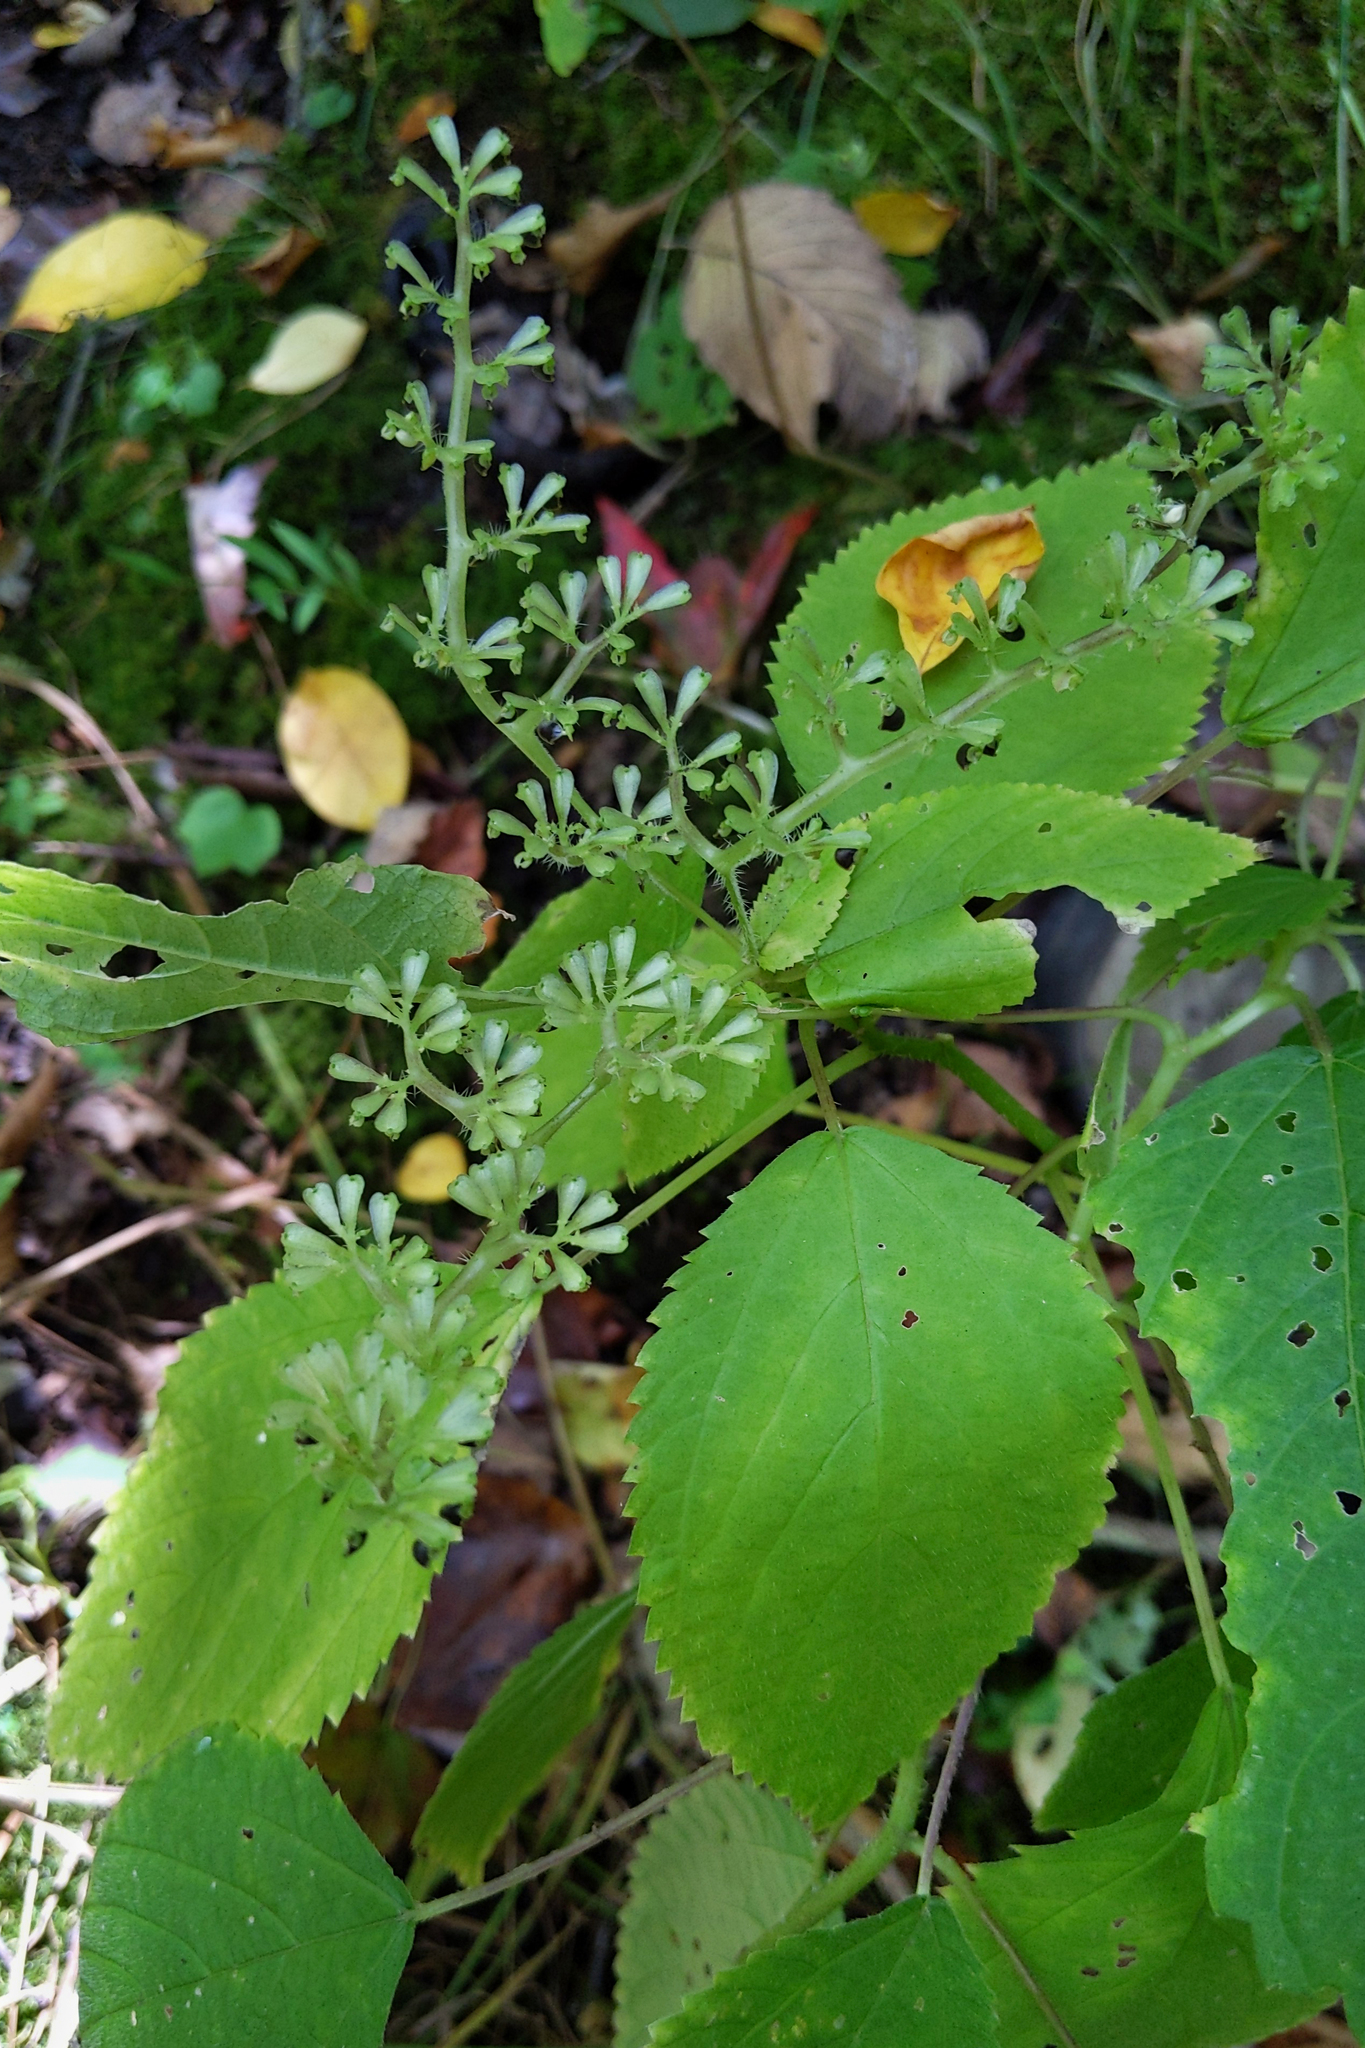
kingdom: Plantae
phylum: Tracheophyta
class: Magnoliopsida
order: Rosales
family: Urticaceae
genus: Laportea
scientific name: Laportea canadensis
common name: Canada nettle
